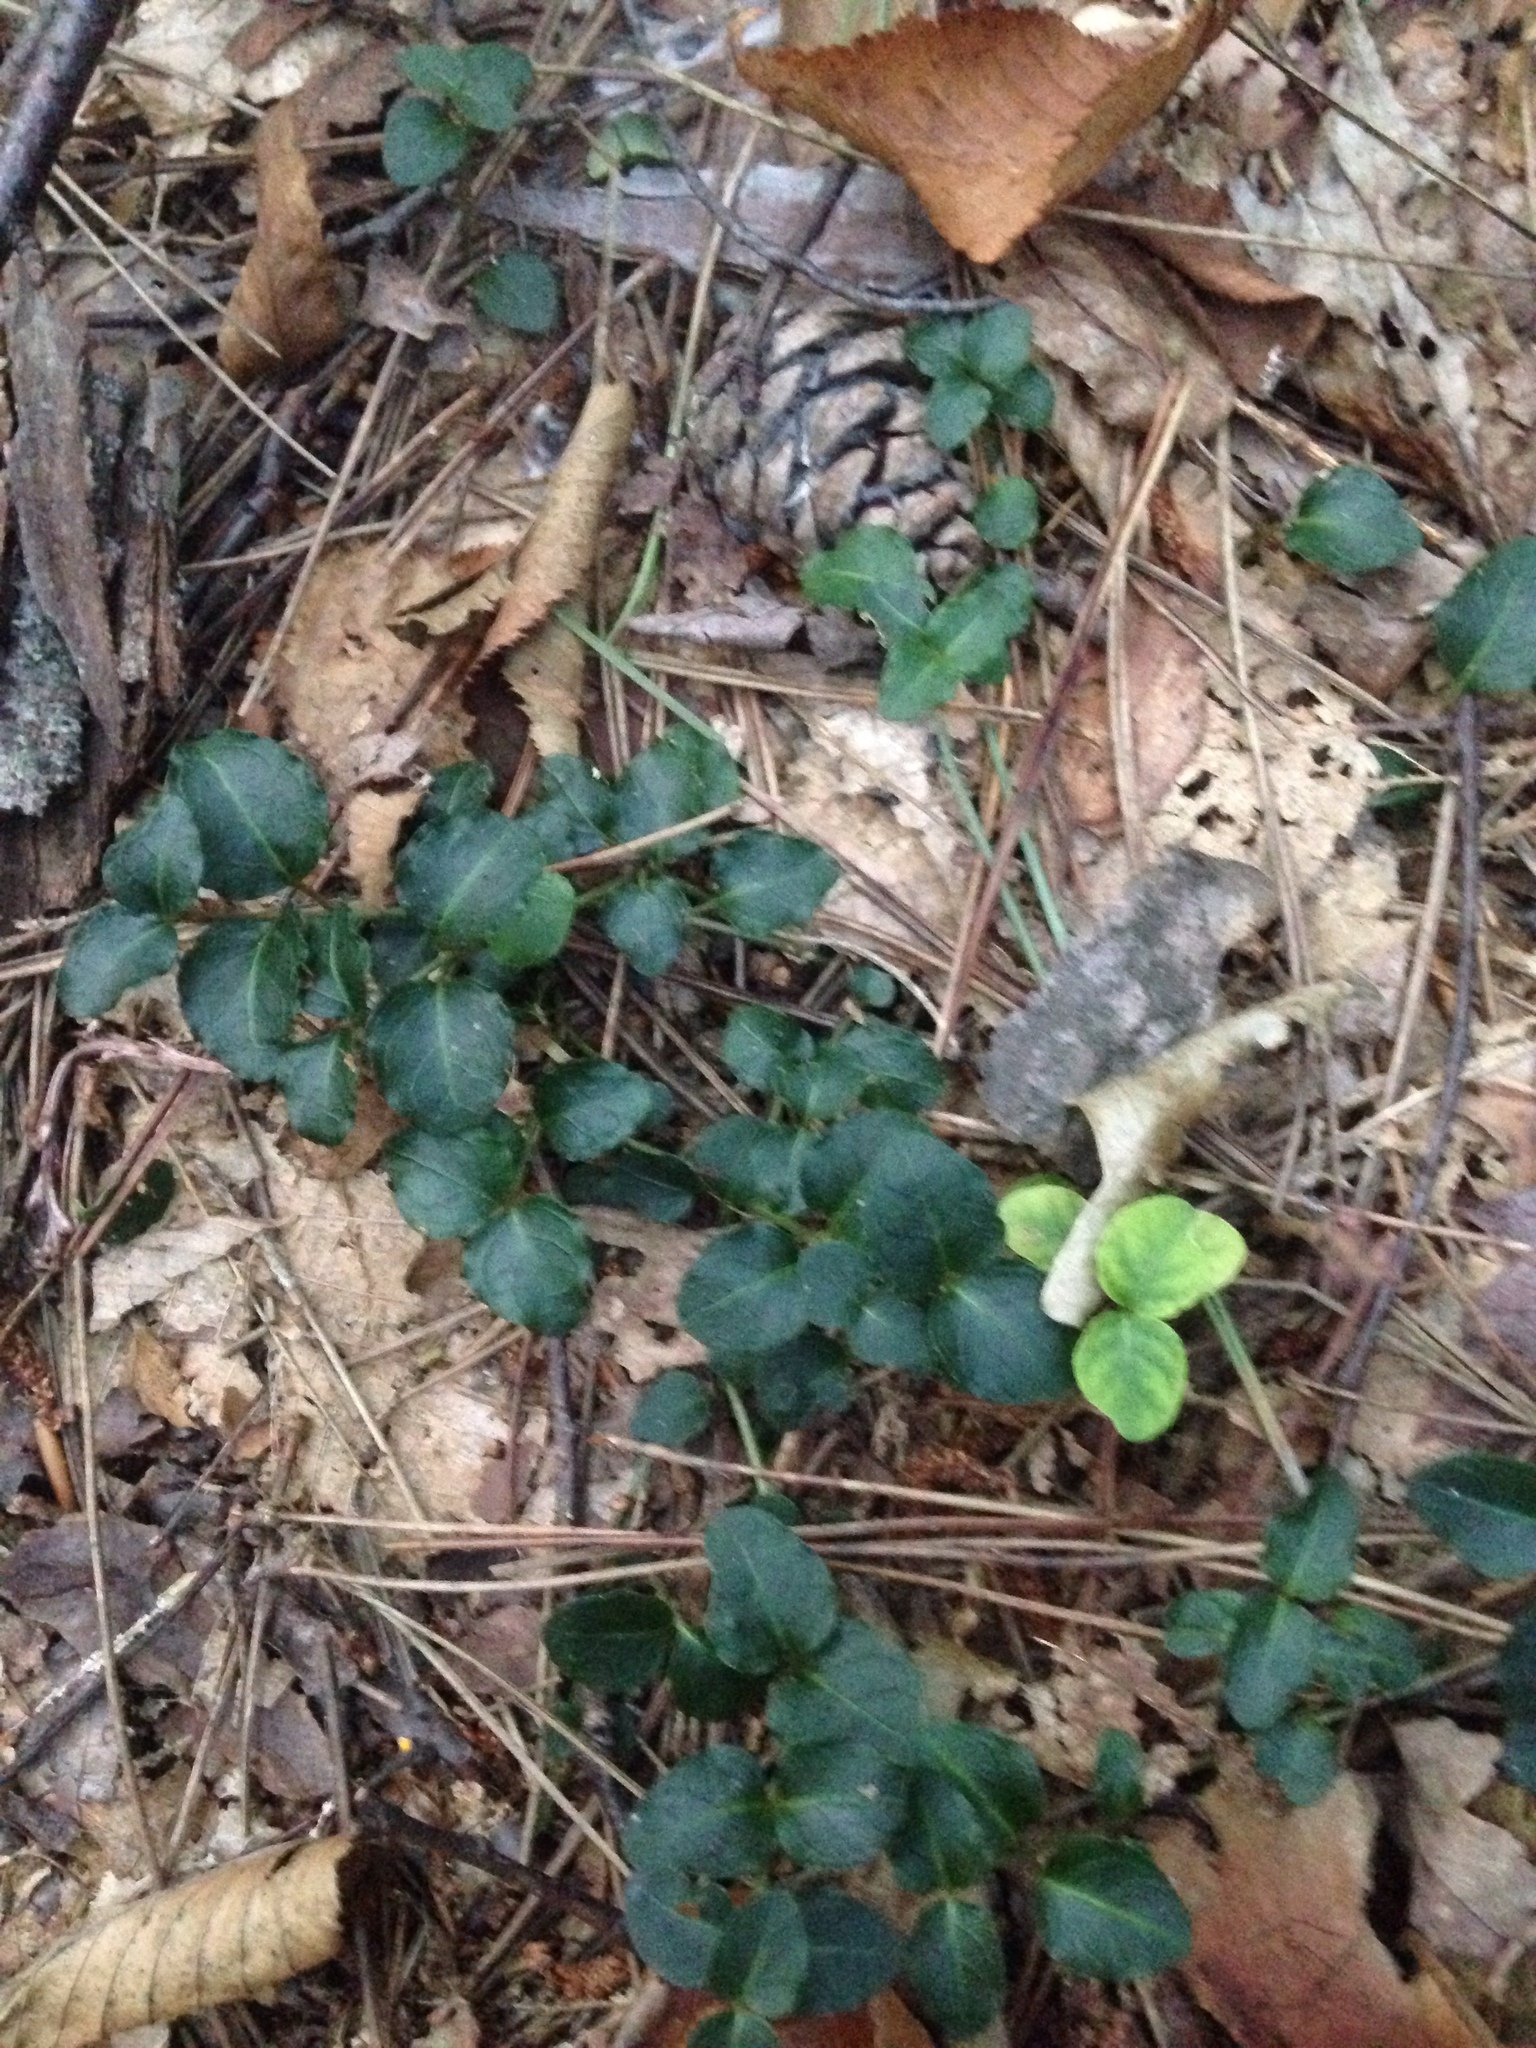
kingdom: Plantae
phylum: Tracheophyta
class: Magnoliopsida
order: Gentianales
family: Rubiaceae
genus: Mitchella
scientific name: Mitchella repens
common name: Partridge-berry
